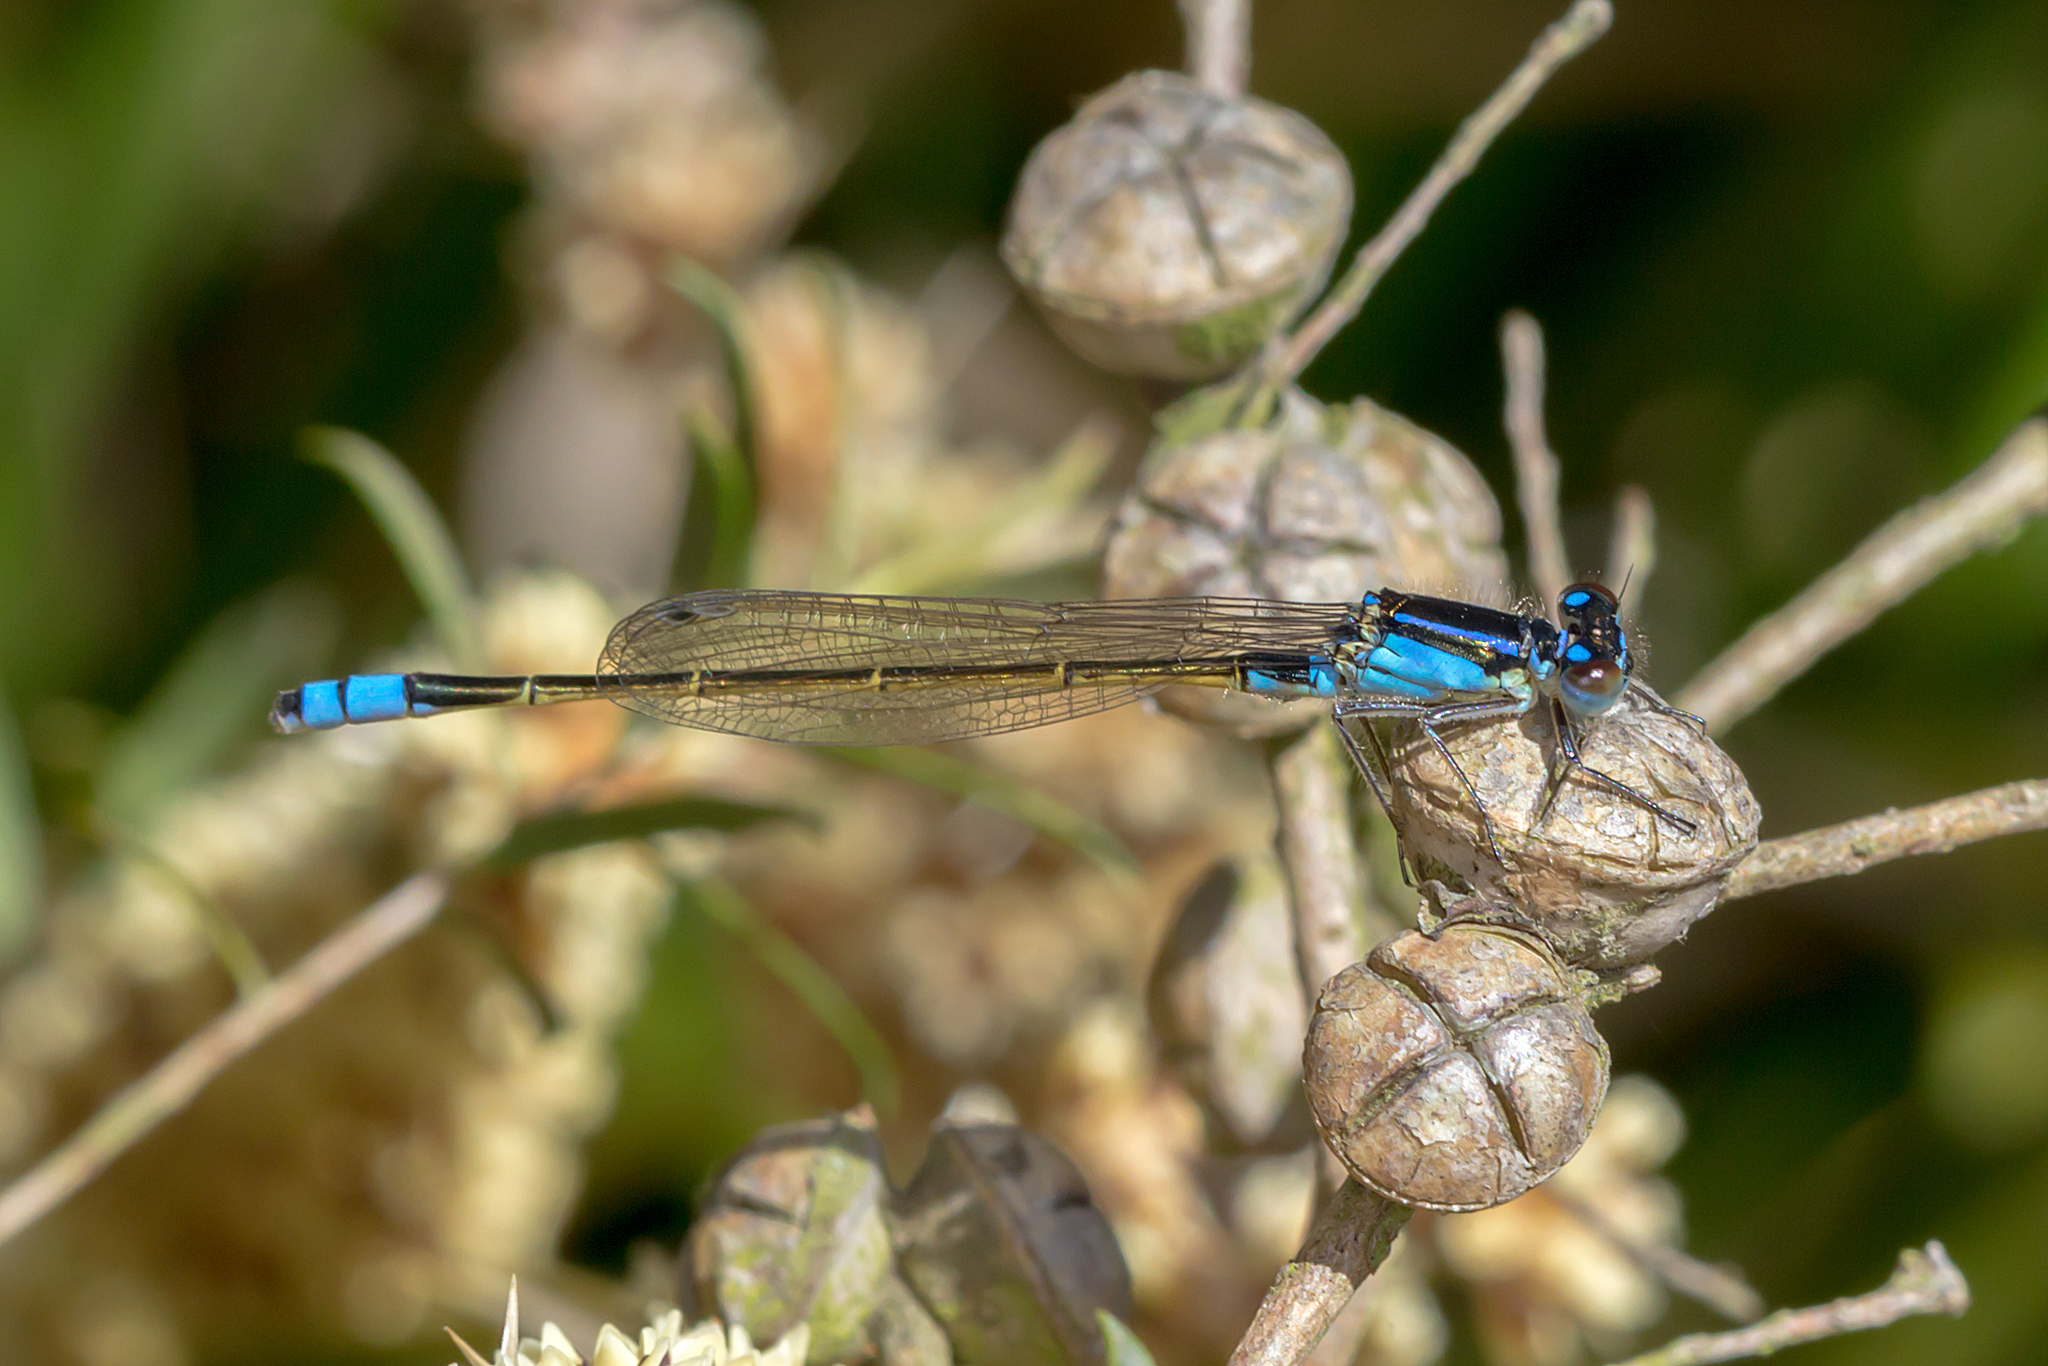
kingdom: Animalia
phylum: Arthropoda
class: Insecta
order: Odonata
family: Coenagrionidae
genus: Ischnura
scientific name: Ischnura heterosticta
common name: Common bluetail
